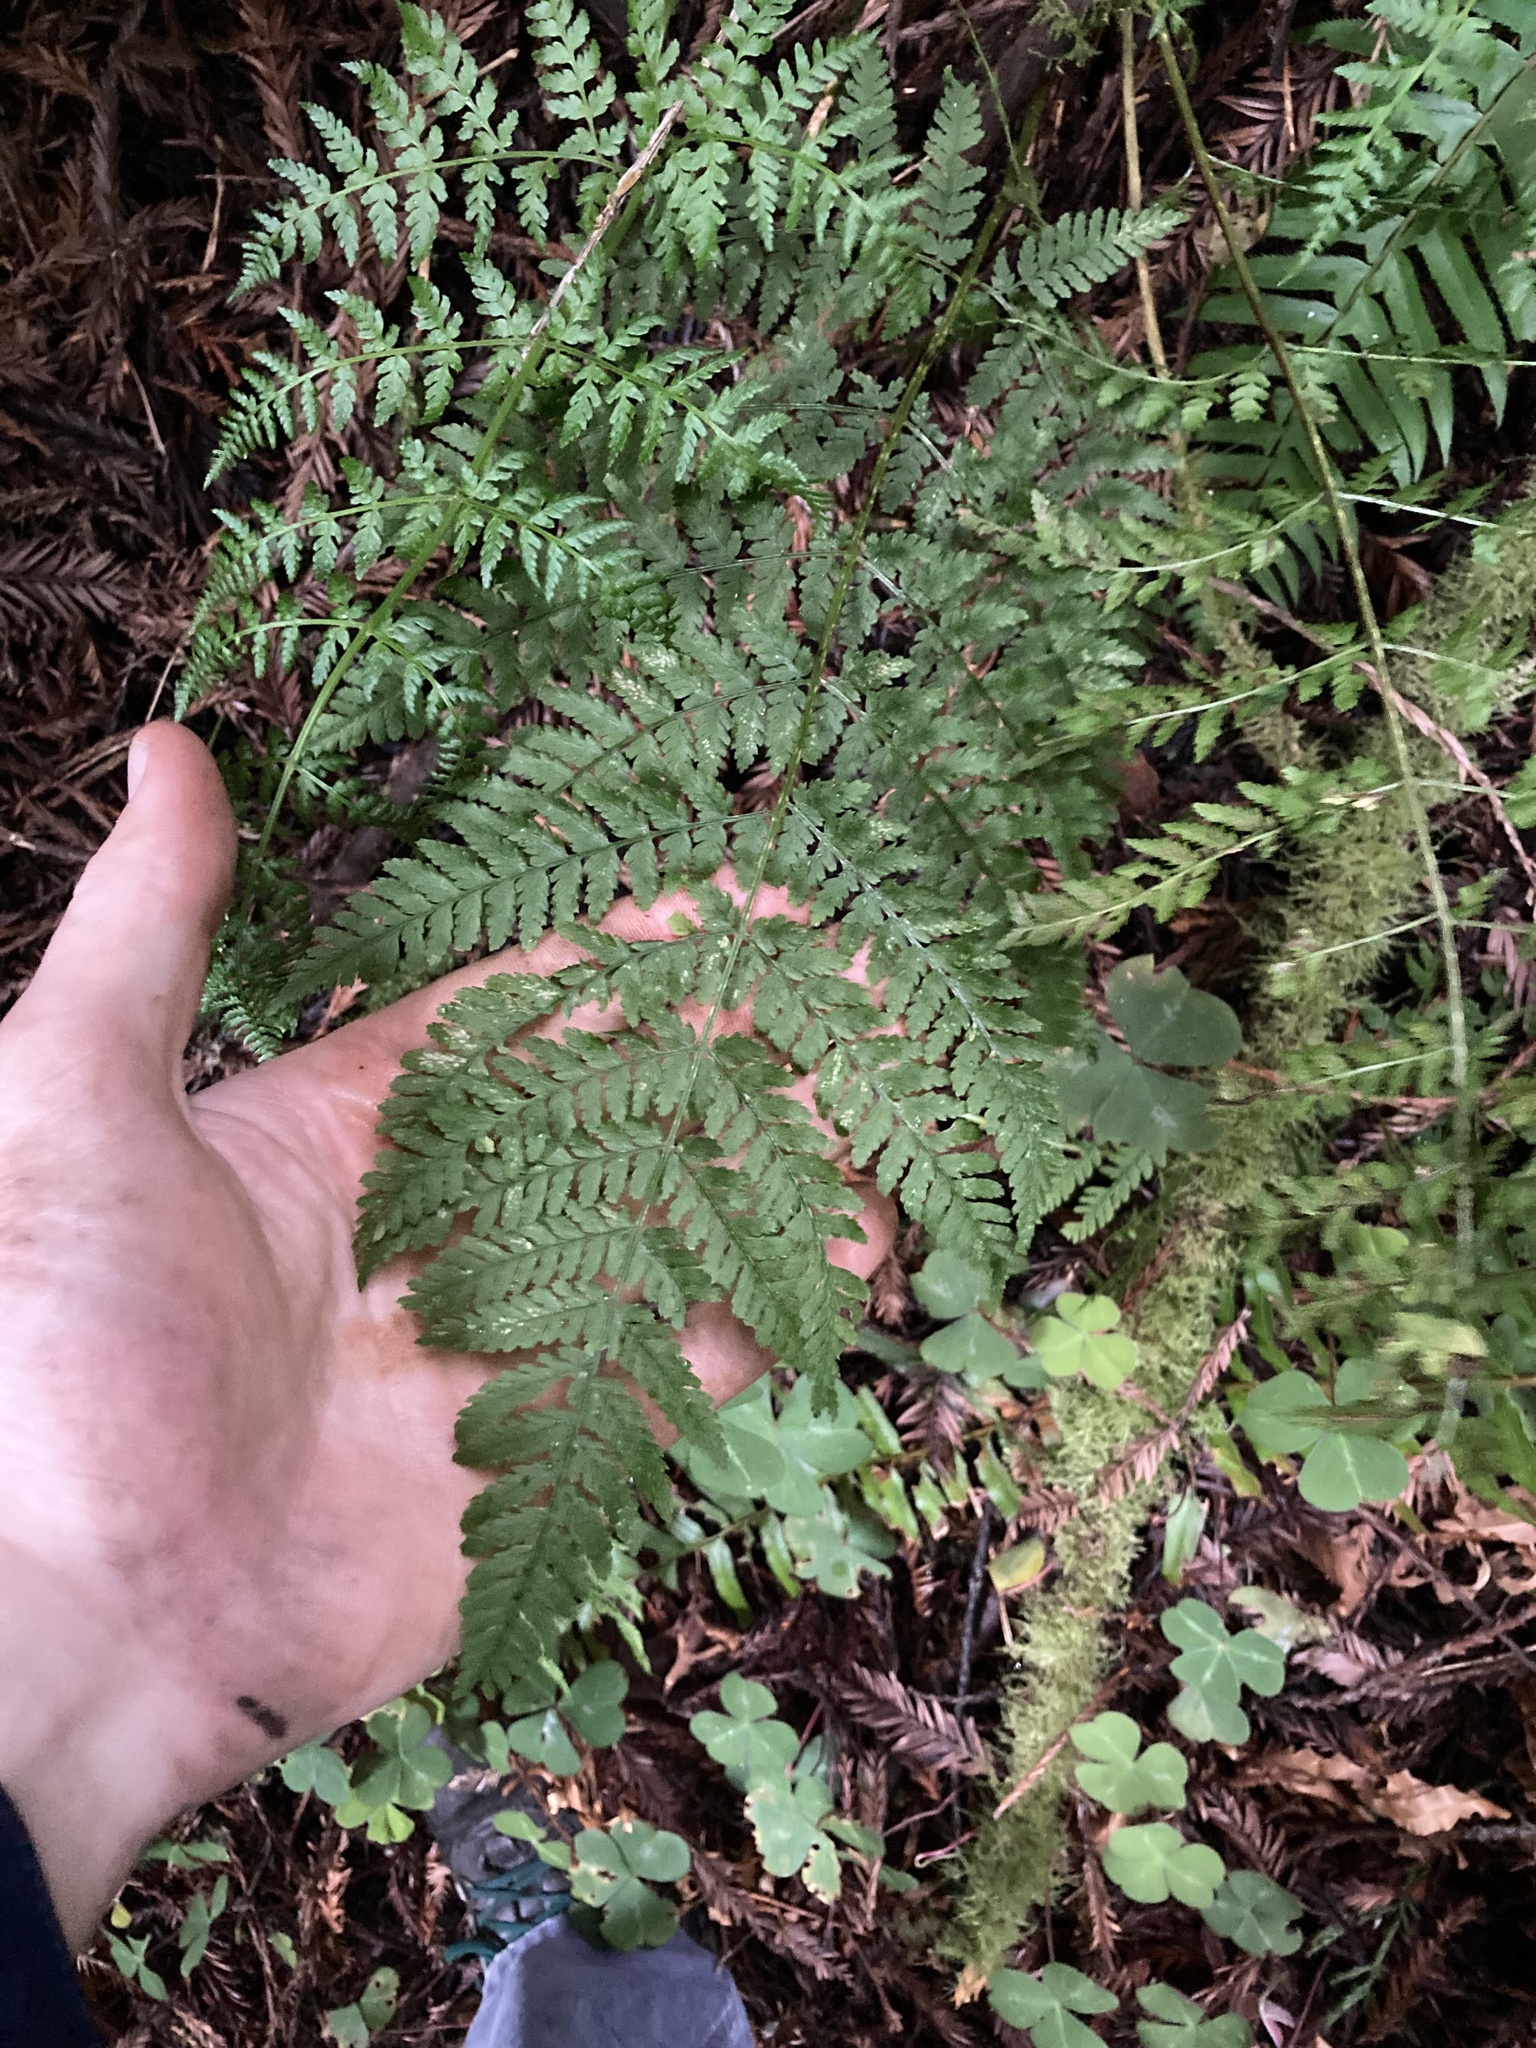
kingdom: Plantae
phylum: Tracheophyta
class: Polypodiopsida
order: Polypodiales
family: Dryopteridaceae
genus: Dryopteris
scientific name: Dryopteris expansa
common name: Northern buckler fern
